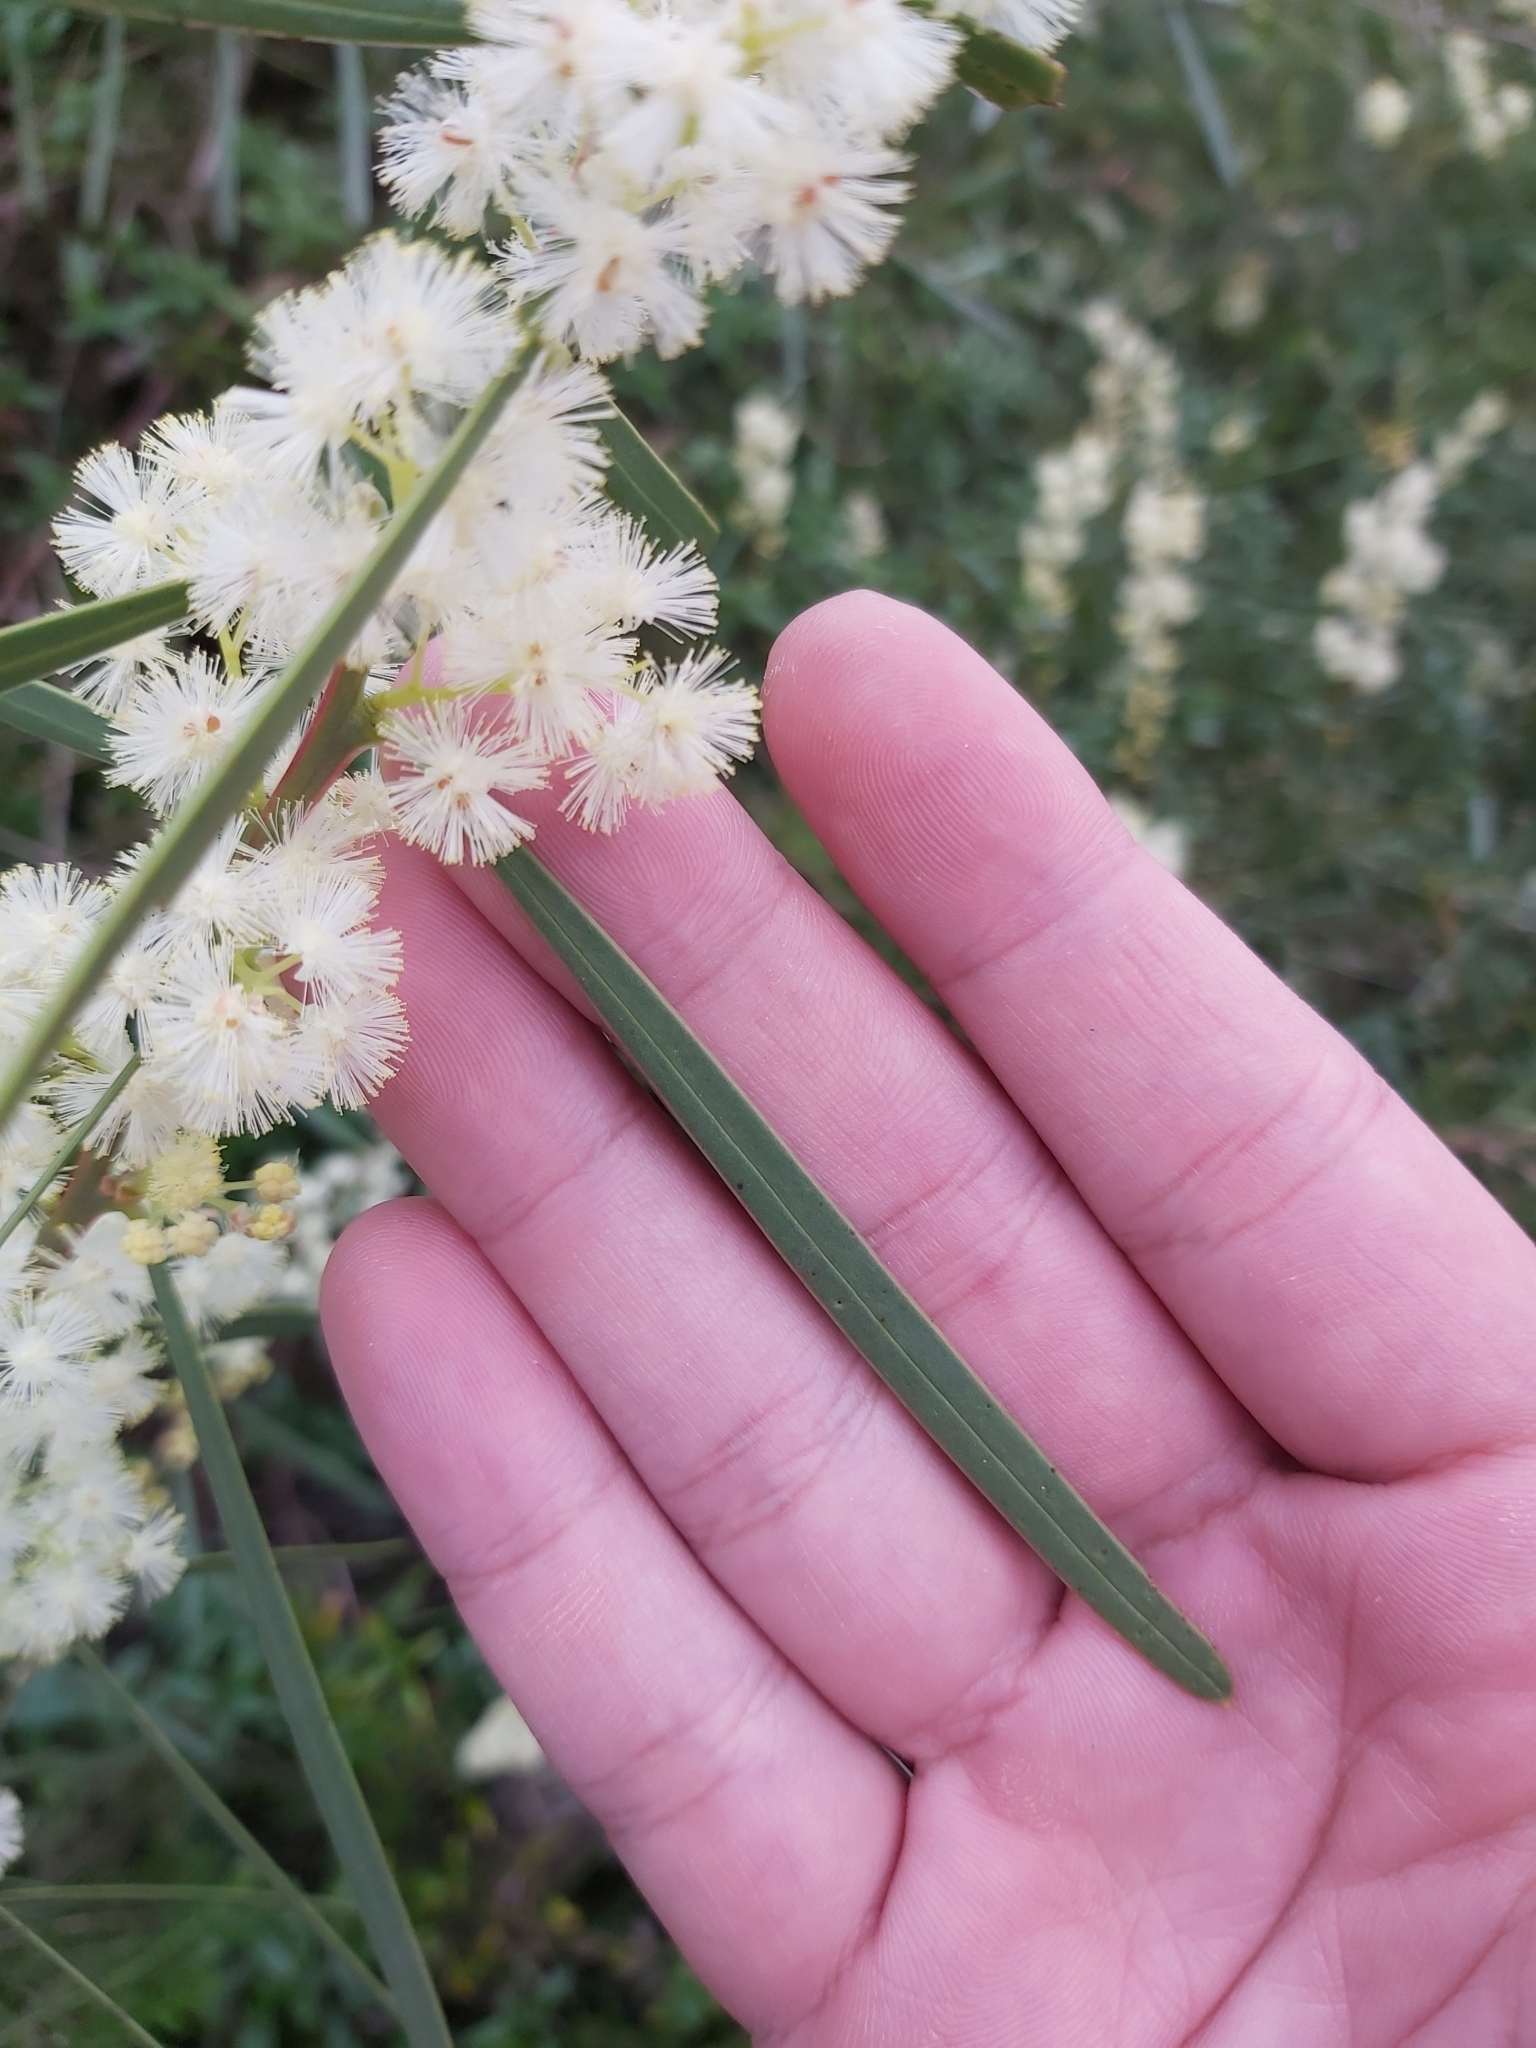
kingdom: Plantae
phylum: Tracheophyta
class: Magnoliopsida
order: Fabales
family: Fabaceae
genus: Acacia
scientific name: Acacia suaveolens
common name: Sweet acacia
